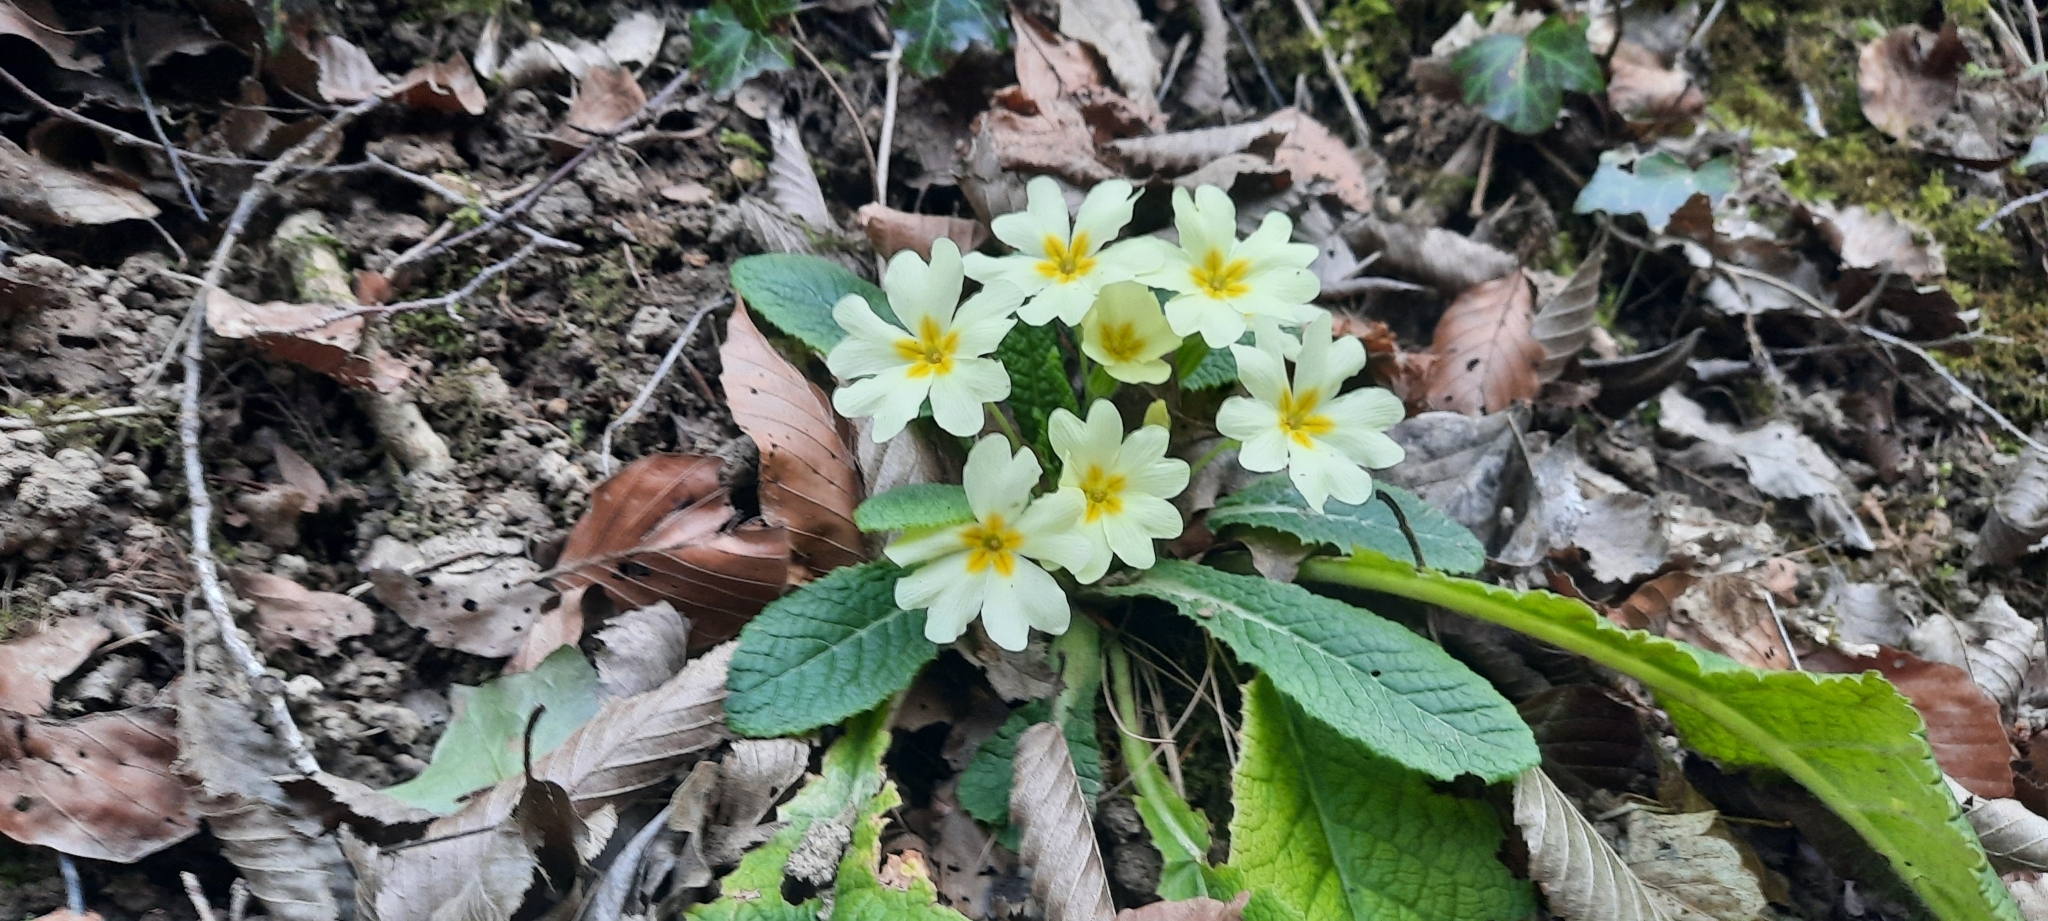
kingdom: Plantae
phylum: Tracheophyta
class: Magnoliopsida
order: Ericales
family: Primulaceae
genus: Primula
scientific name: Primula vulgaris
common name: Primrose
